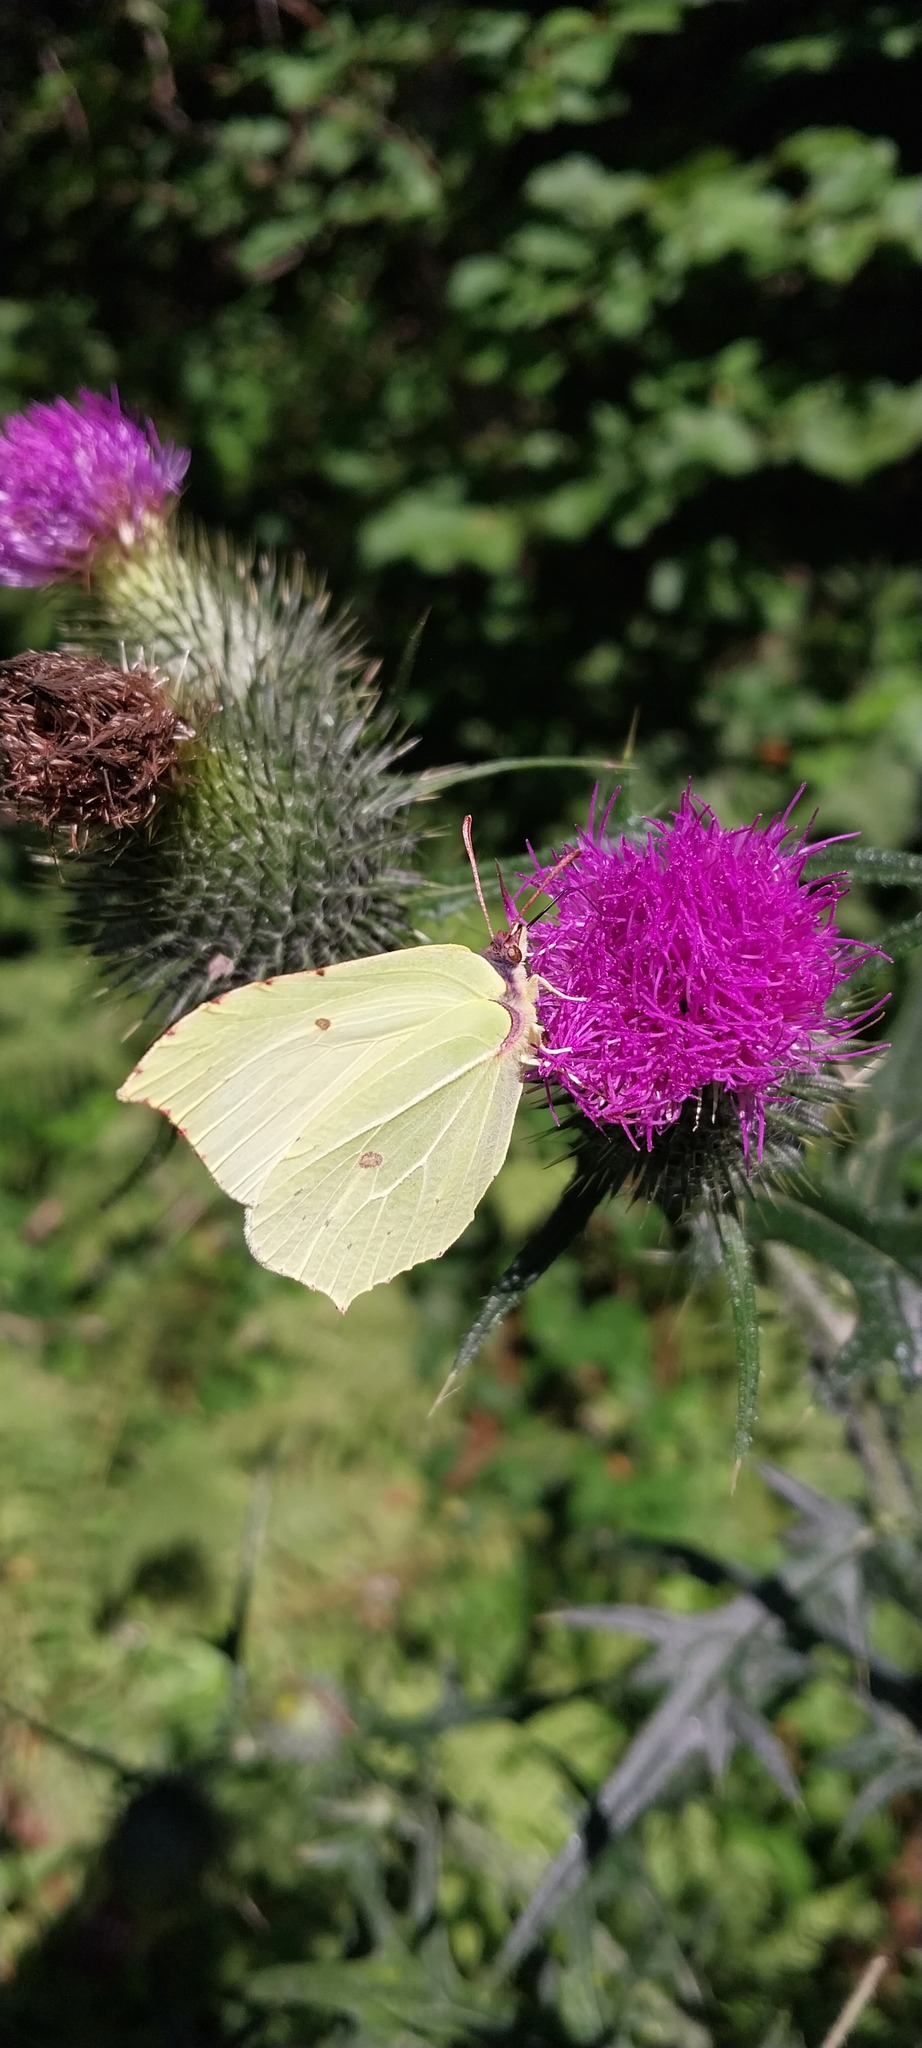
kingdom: Animalia
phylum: Arthropoda
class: Insecta
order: Lepidoptera
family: Pieridae
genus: Gonepteryx
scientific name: Gonepteryx rhamni
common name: Brimstone
